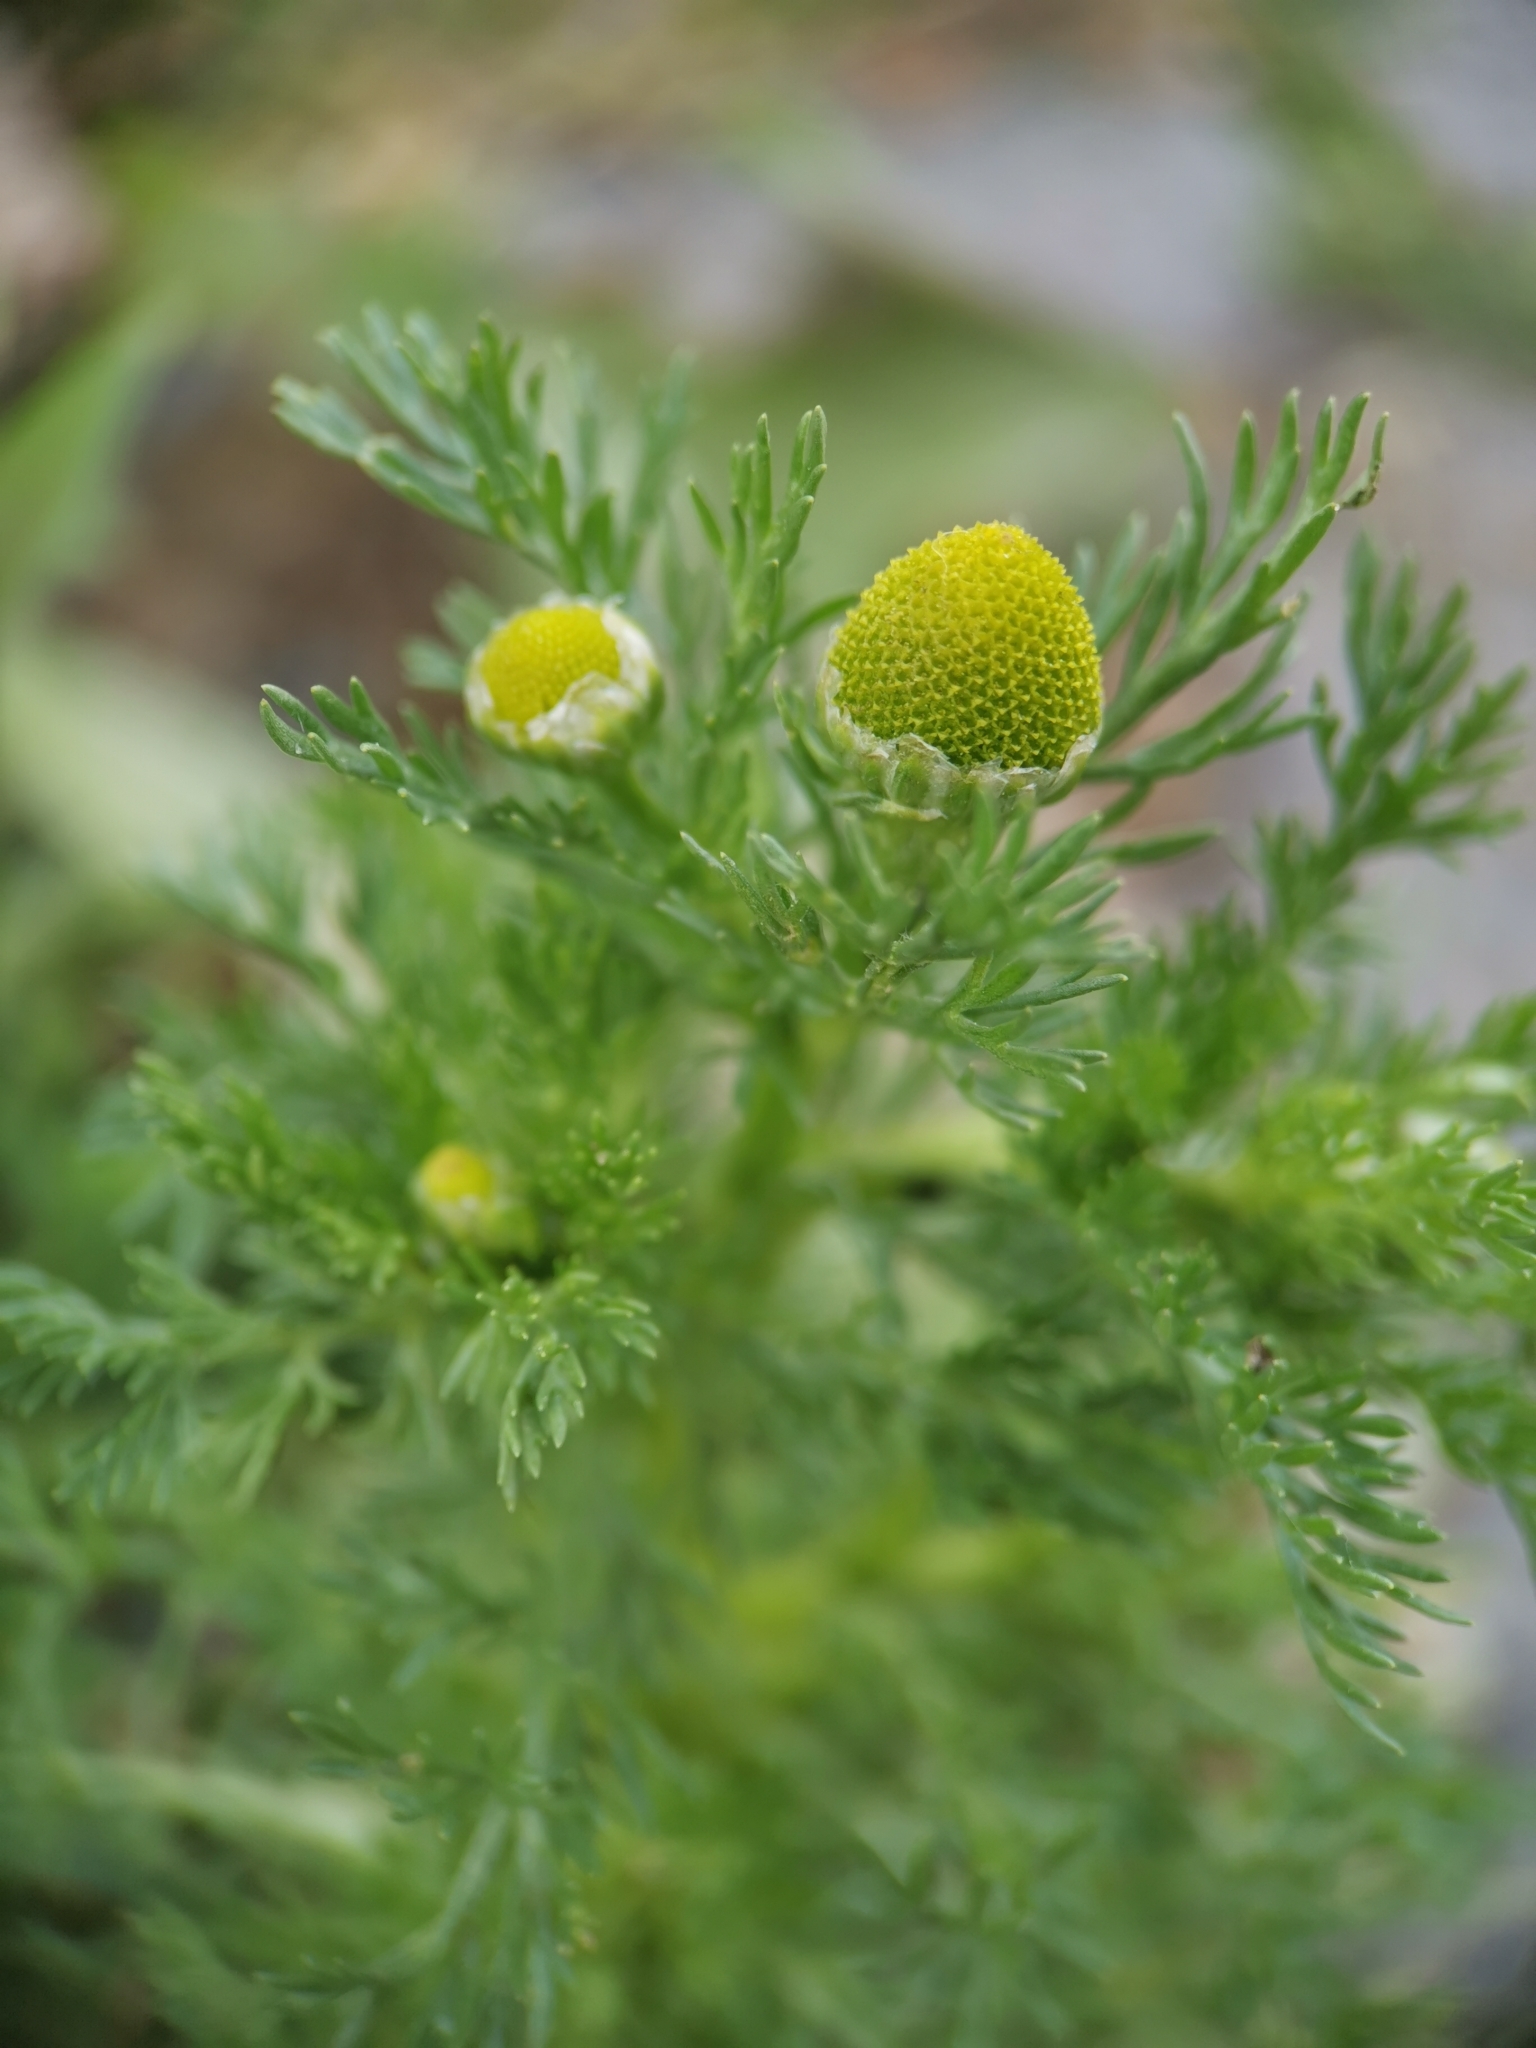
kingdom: Plantae
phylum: Tracheophyta
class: Magnoliopsida
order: Asterales
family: Asteraceae
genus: Matricaria
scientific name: Matricaria discoidea
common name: Disc mayweed
